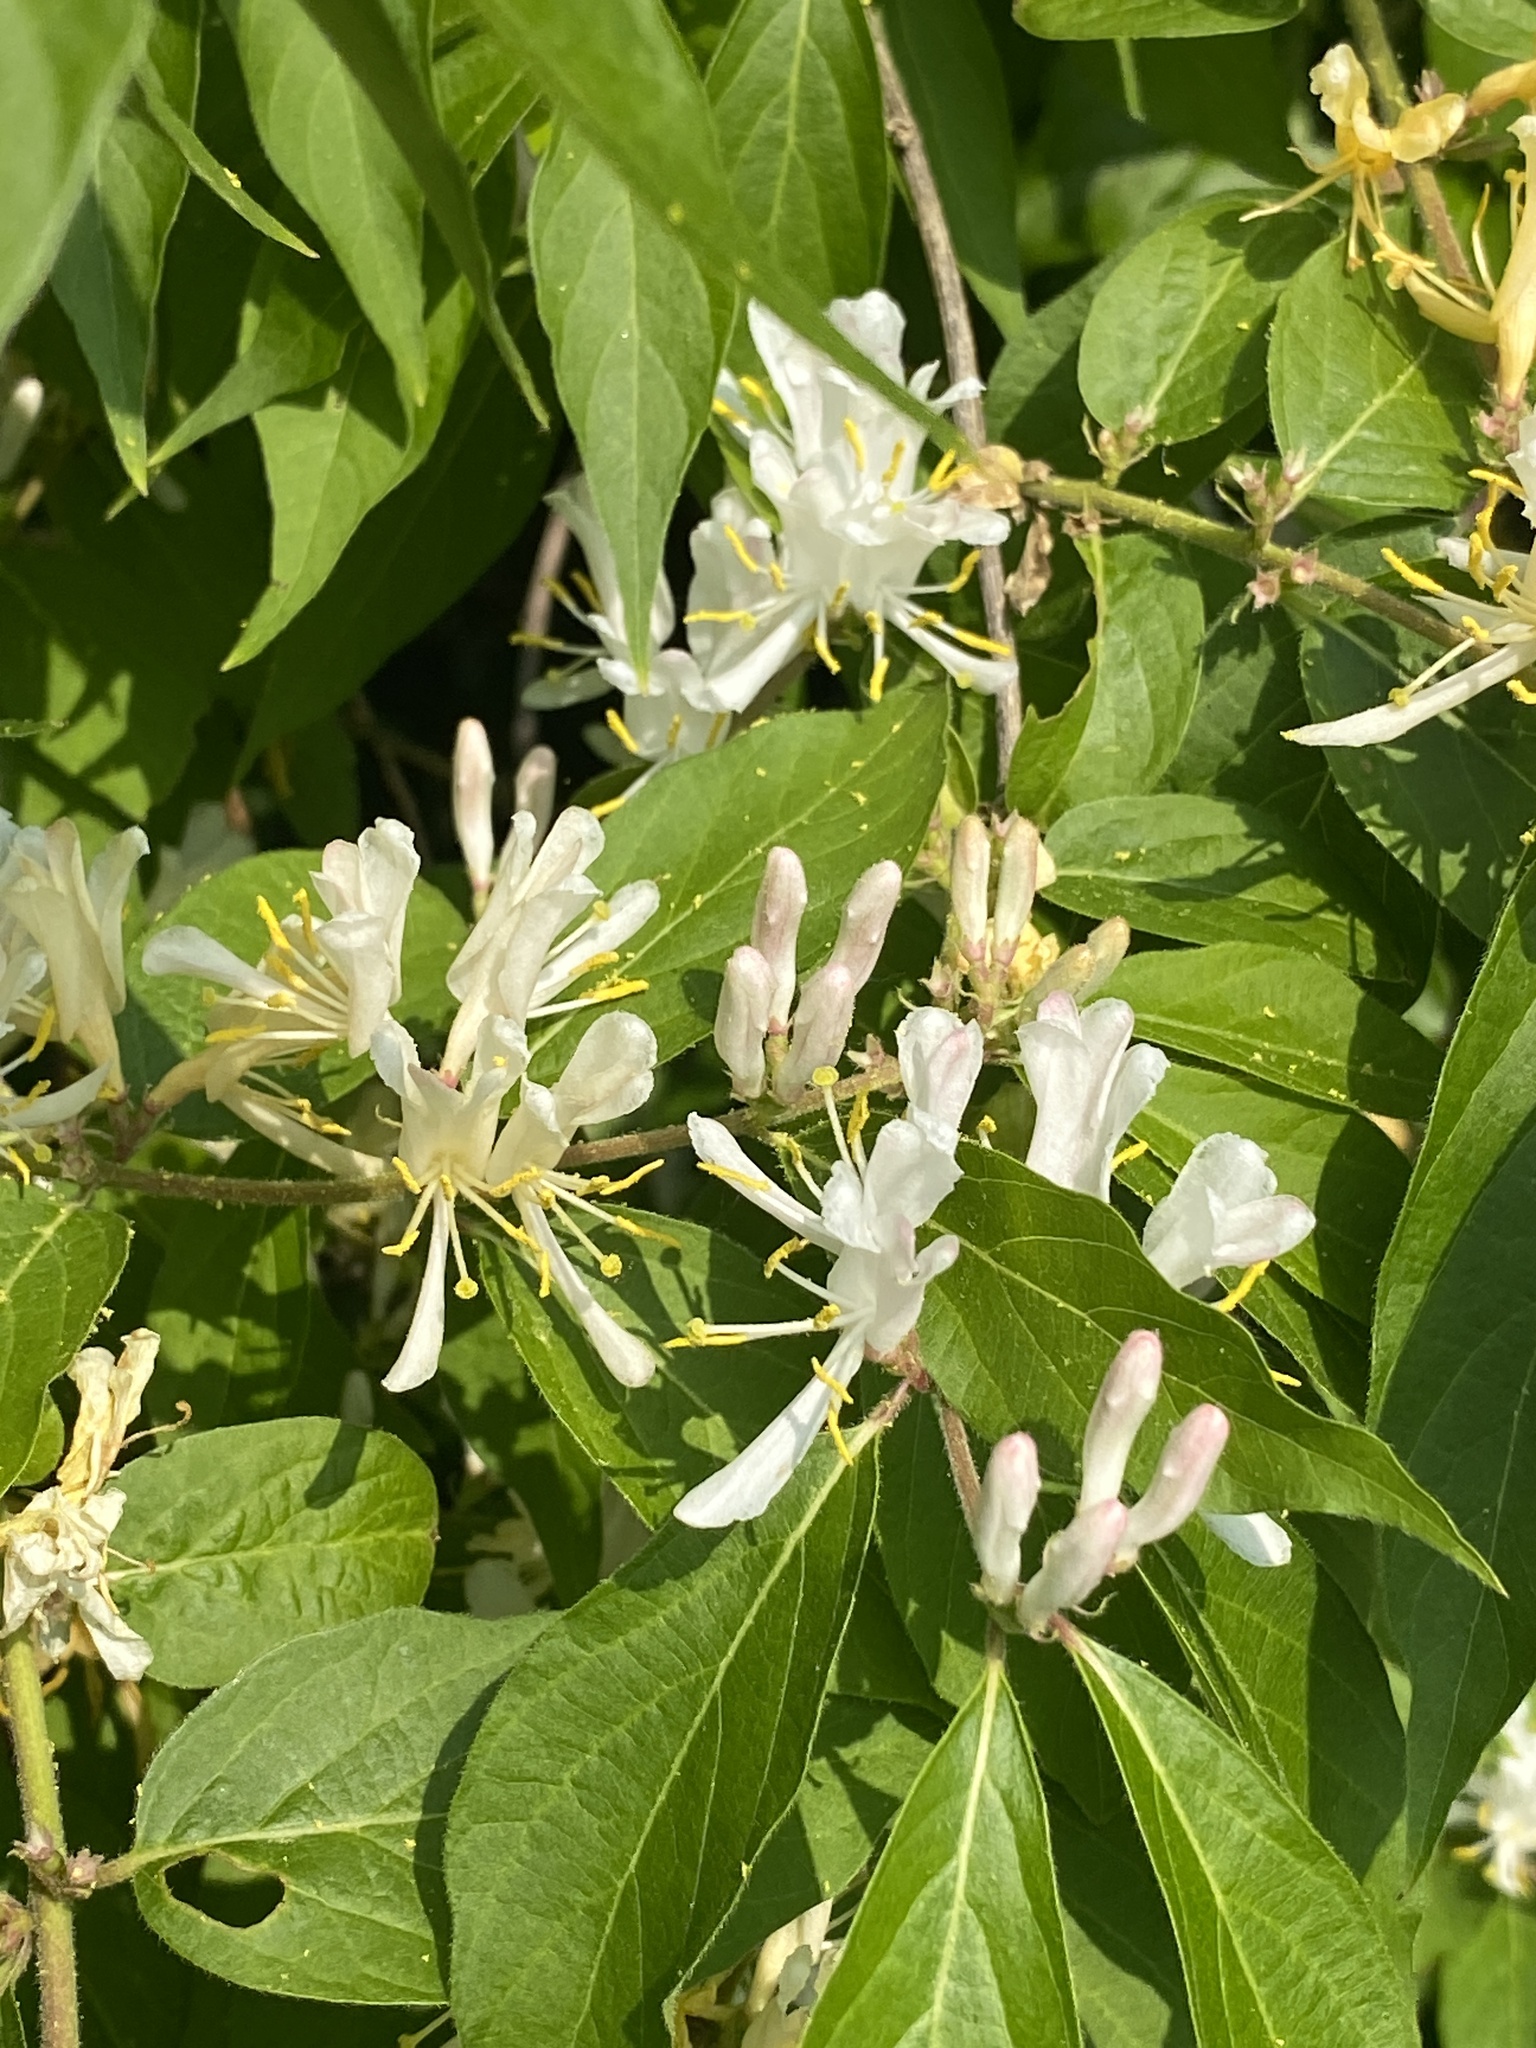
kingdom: Plantae
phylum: Tracheophyta
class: Magnoliopsida
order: Dipsacales
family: Caprifoliaceae
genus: Lonicera
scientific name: Lonicera maackii
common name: Amur honeysuckle
